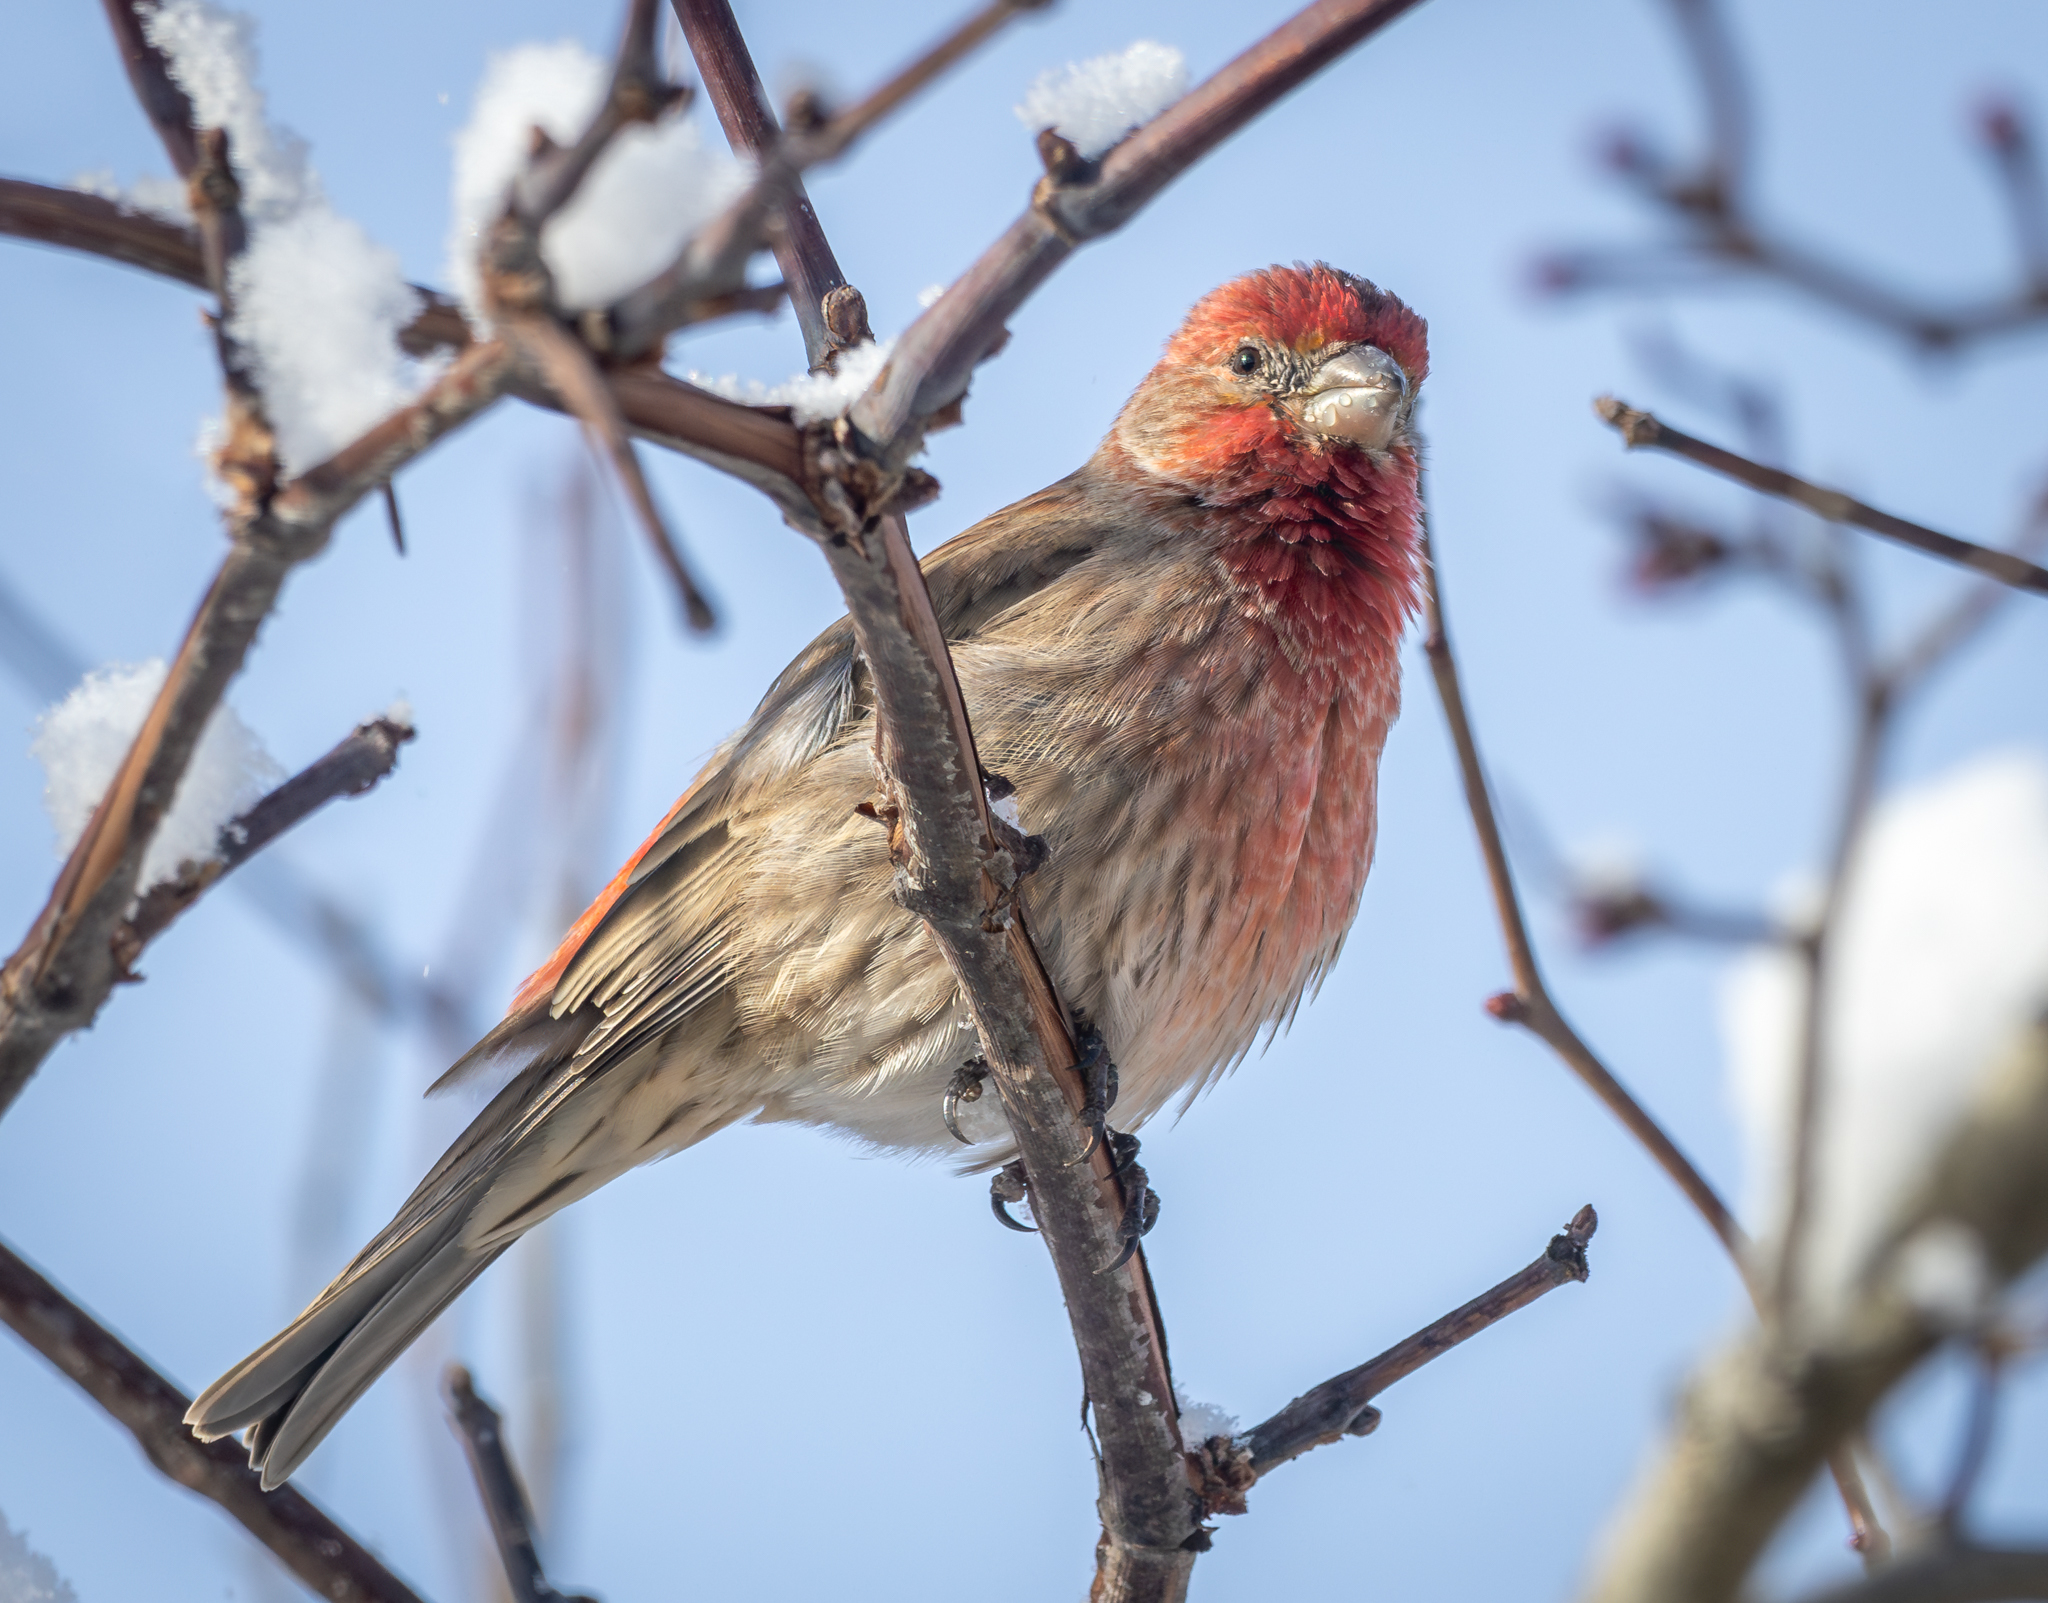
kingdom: Animalia
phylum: Chordata
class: Aves
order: Passeriformes
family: Fringillidae
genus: Haemorhous
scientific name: Haemorhous mexicanus
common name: House finch
